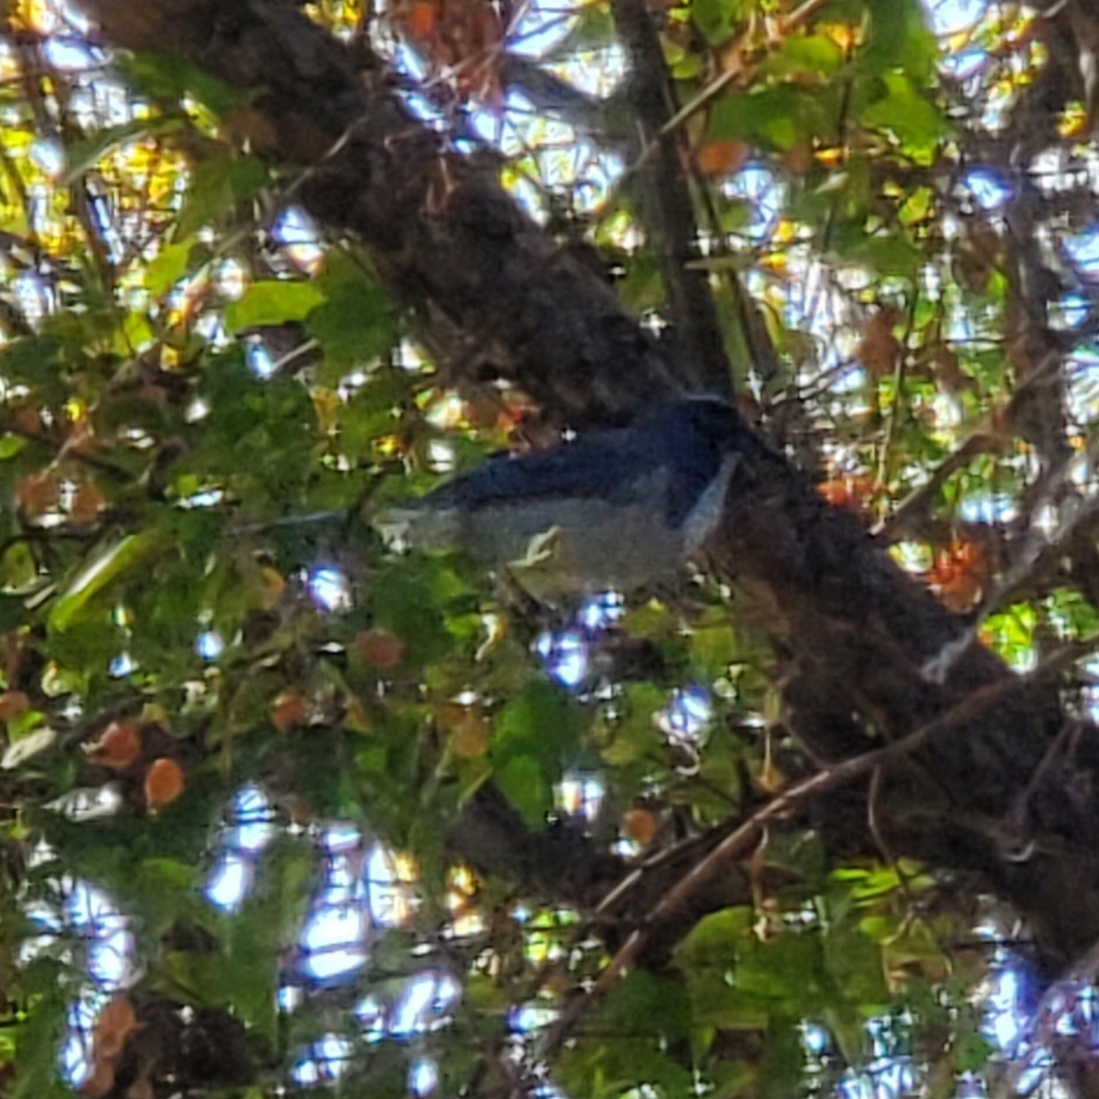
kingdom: Animalia
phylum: Chordata
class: Aves
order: Passeriformes
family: Corvidae
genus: Aphelocoma
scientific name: Aphelocoma californica
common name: California scrub-jay
